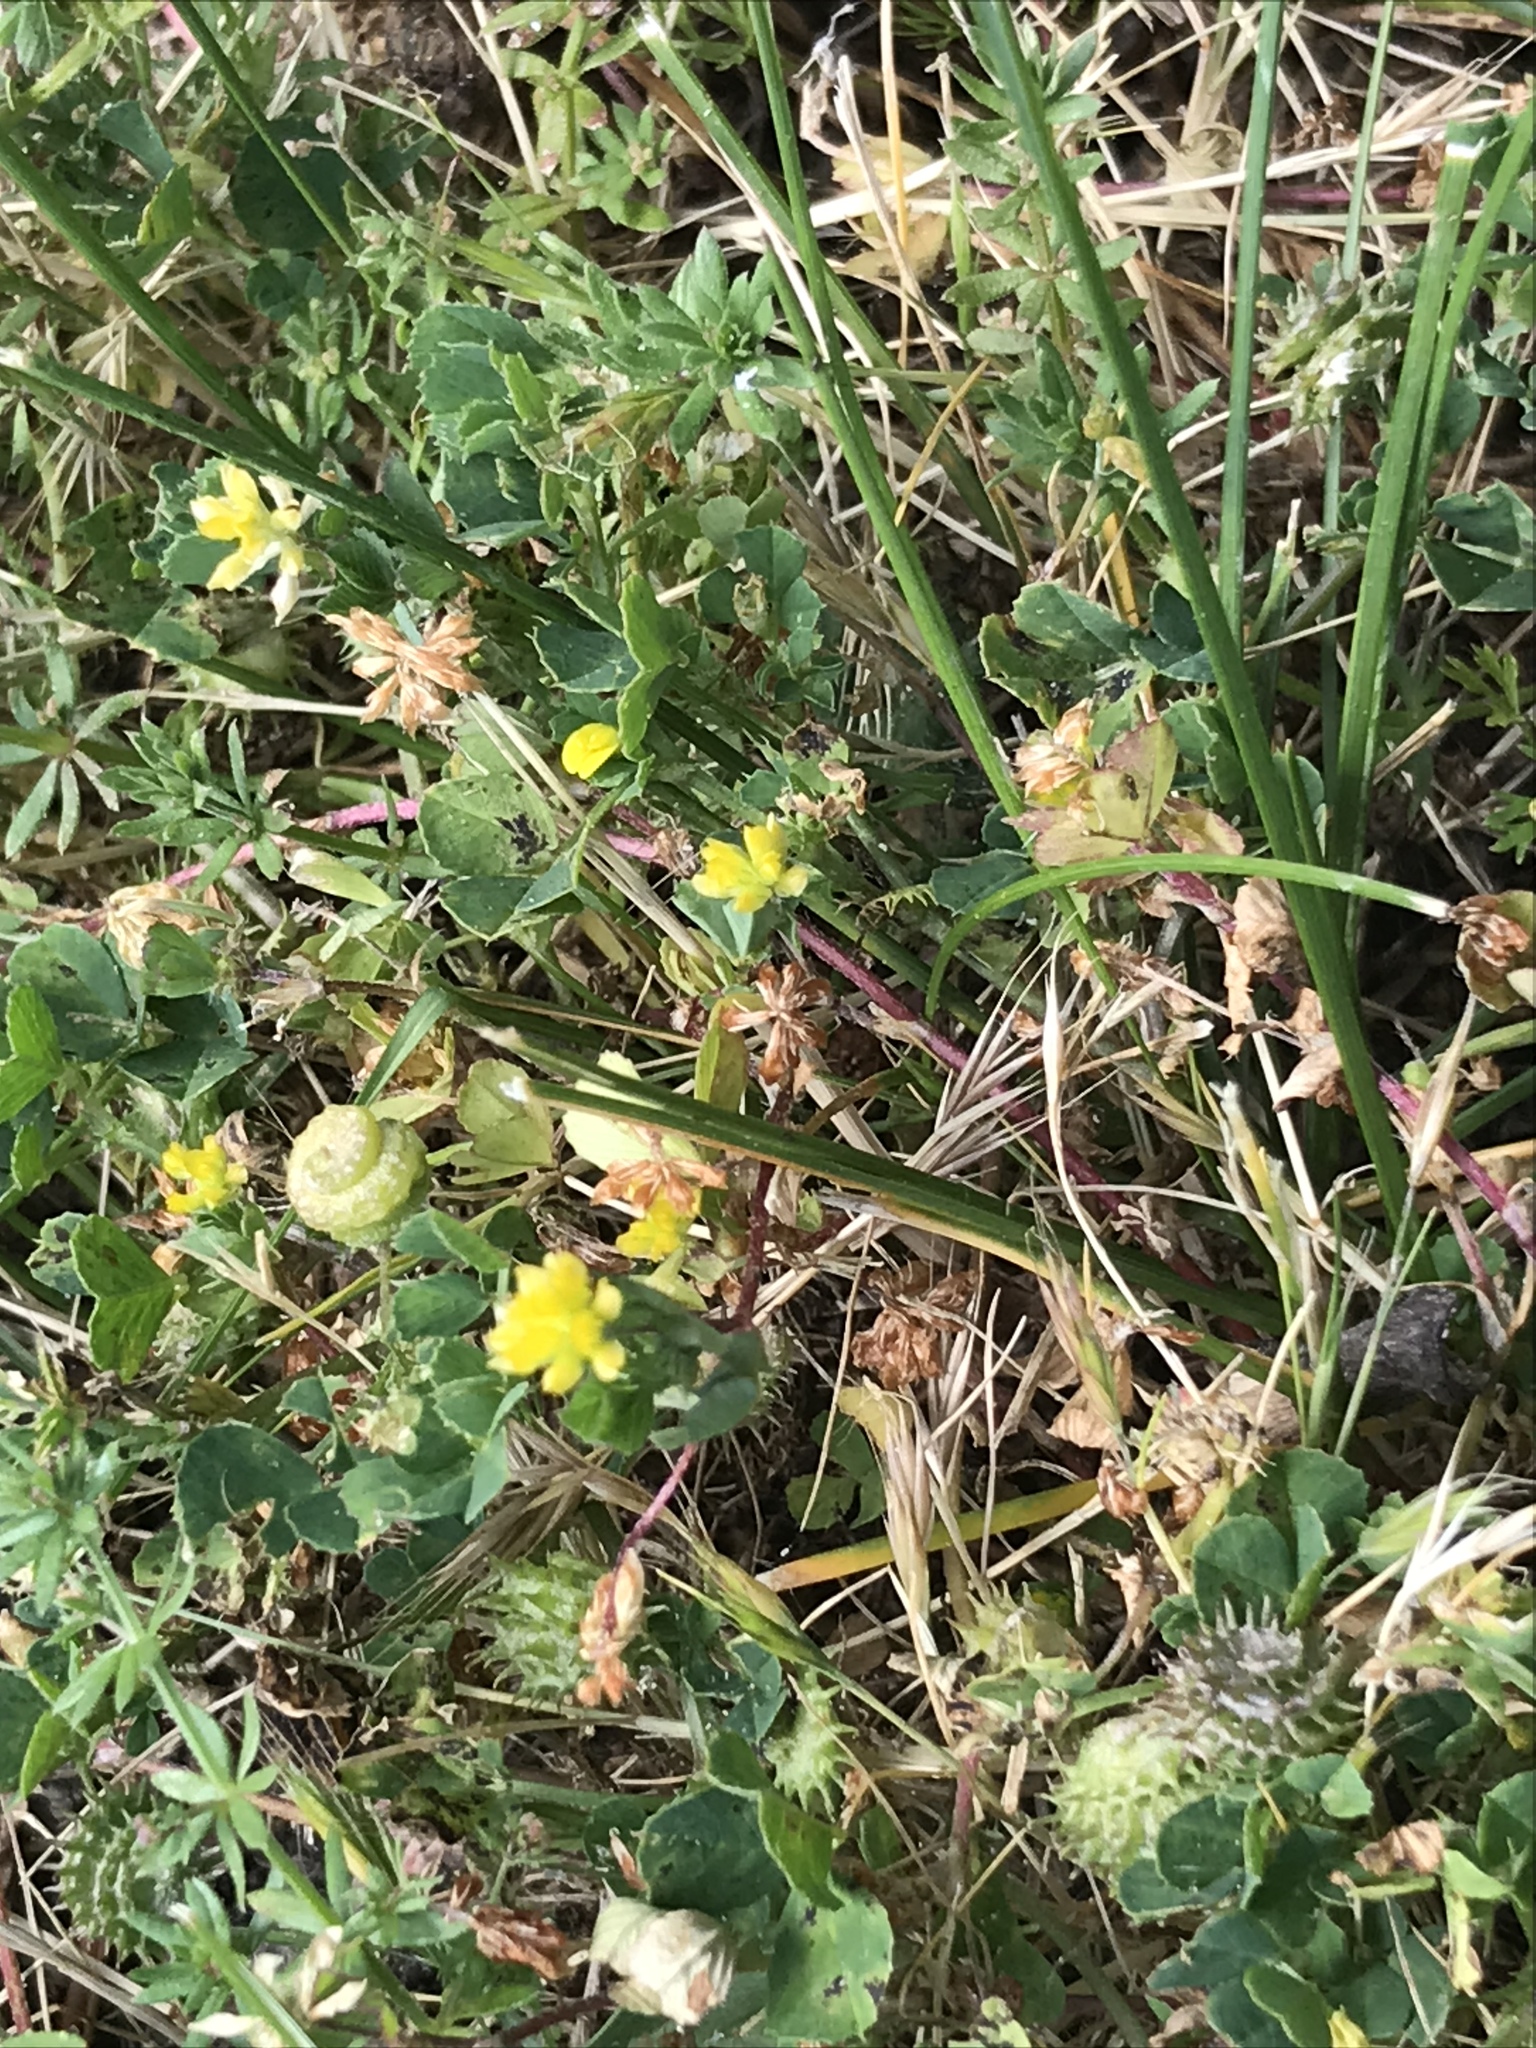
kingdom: Plantae
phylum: Tracheophyta
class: Magnoliopsida
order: Fabales
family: Fabaceae
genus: Medicago
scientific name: Medicago polymorpha
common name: Burclover
